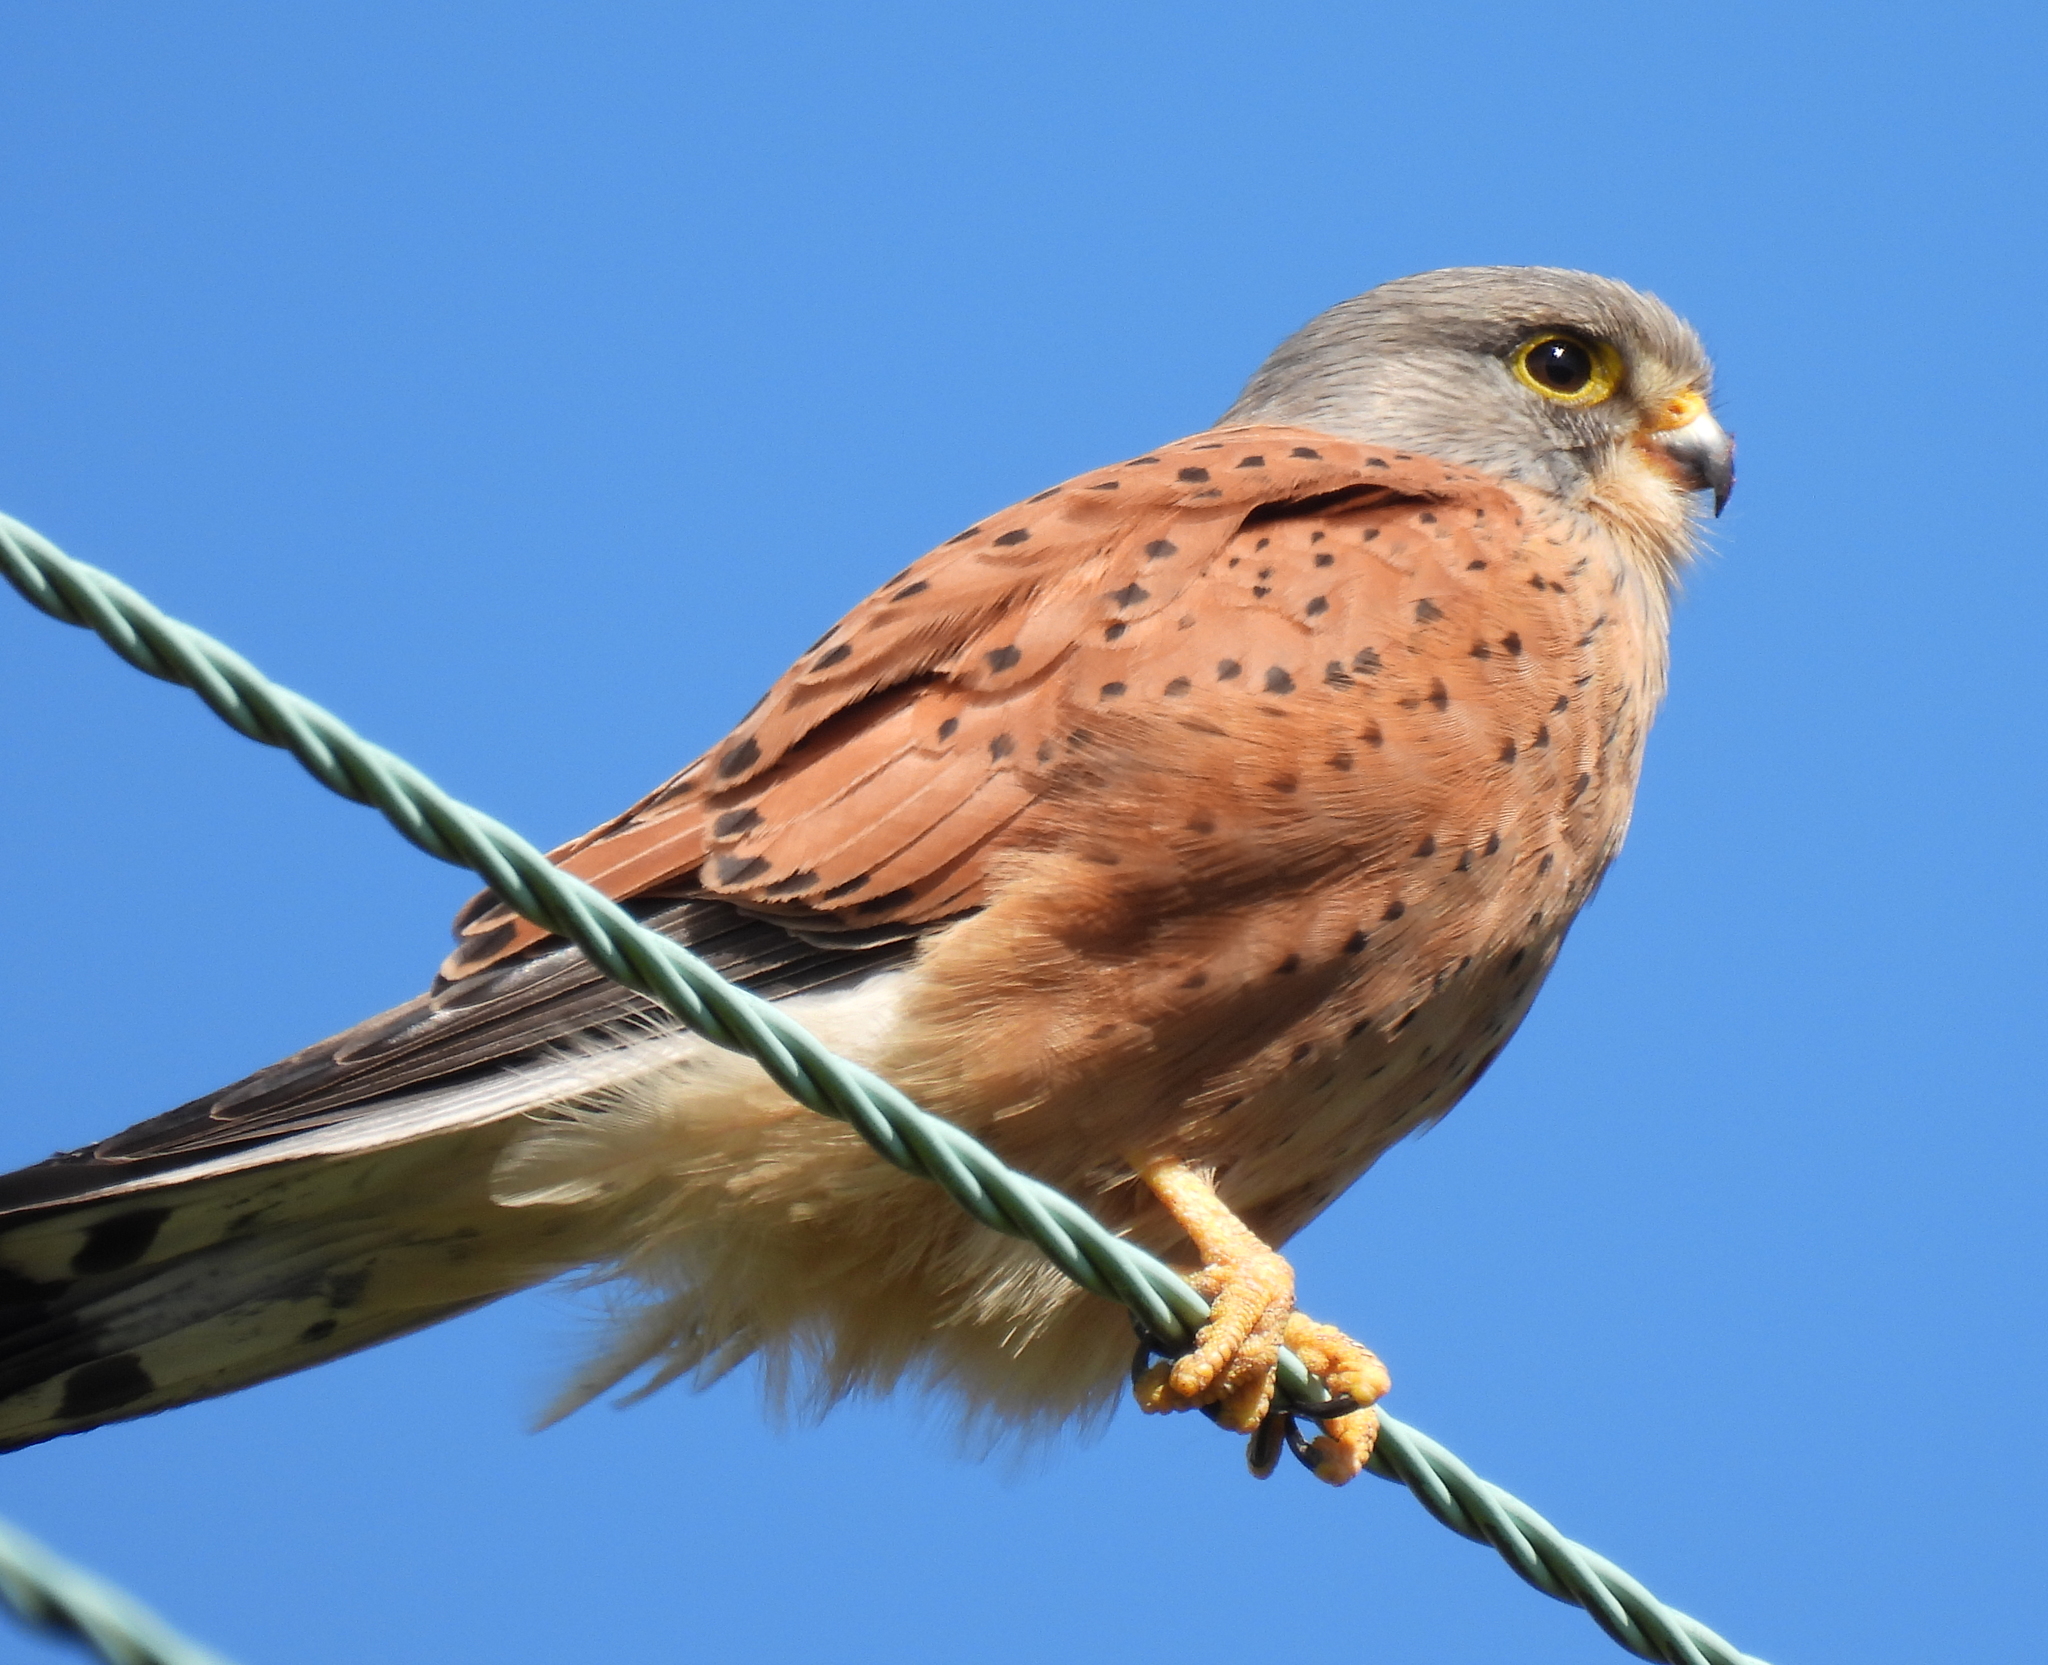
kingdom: Animalia
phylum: Chordata
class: Aves
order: Falconiformes
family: Falconidae
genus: Falco
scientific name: Falco rupicolus
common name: Rock kestrel
